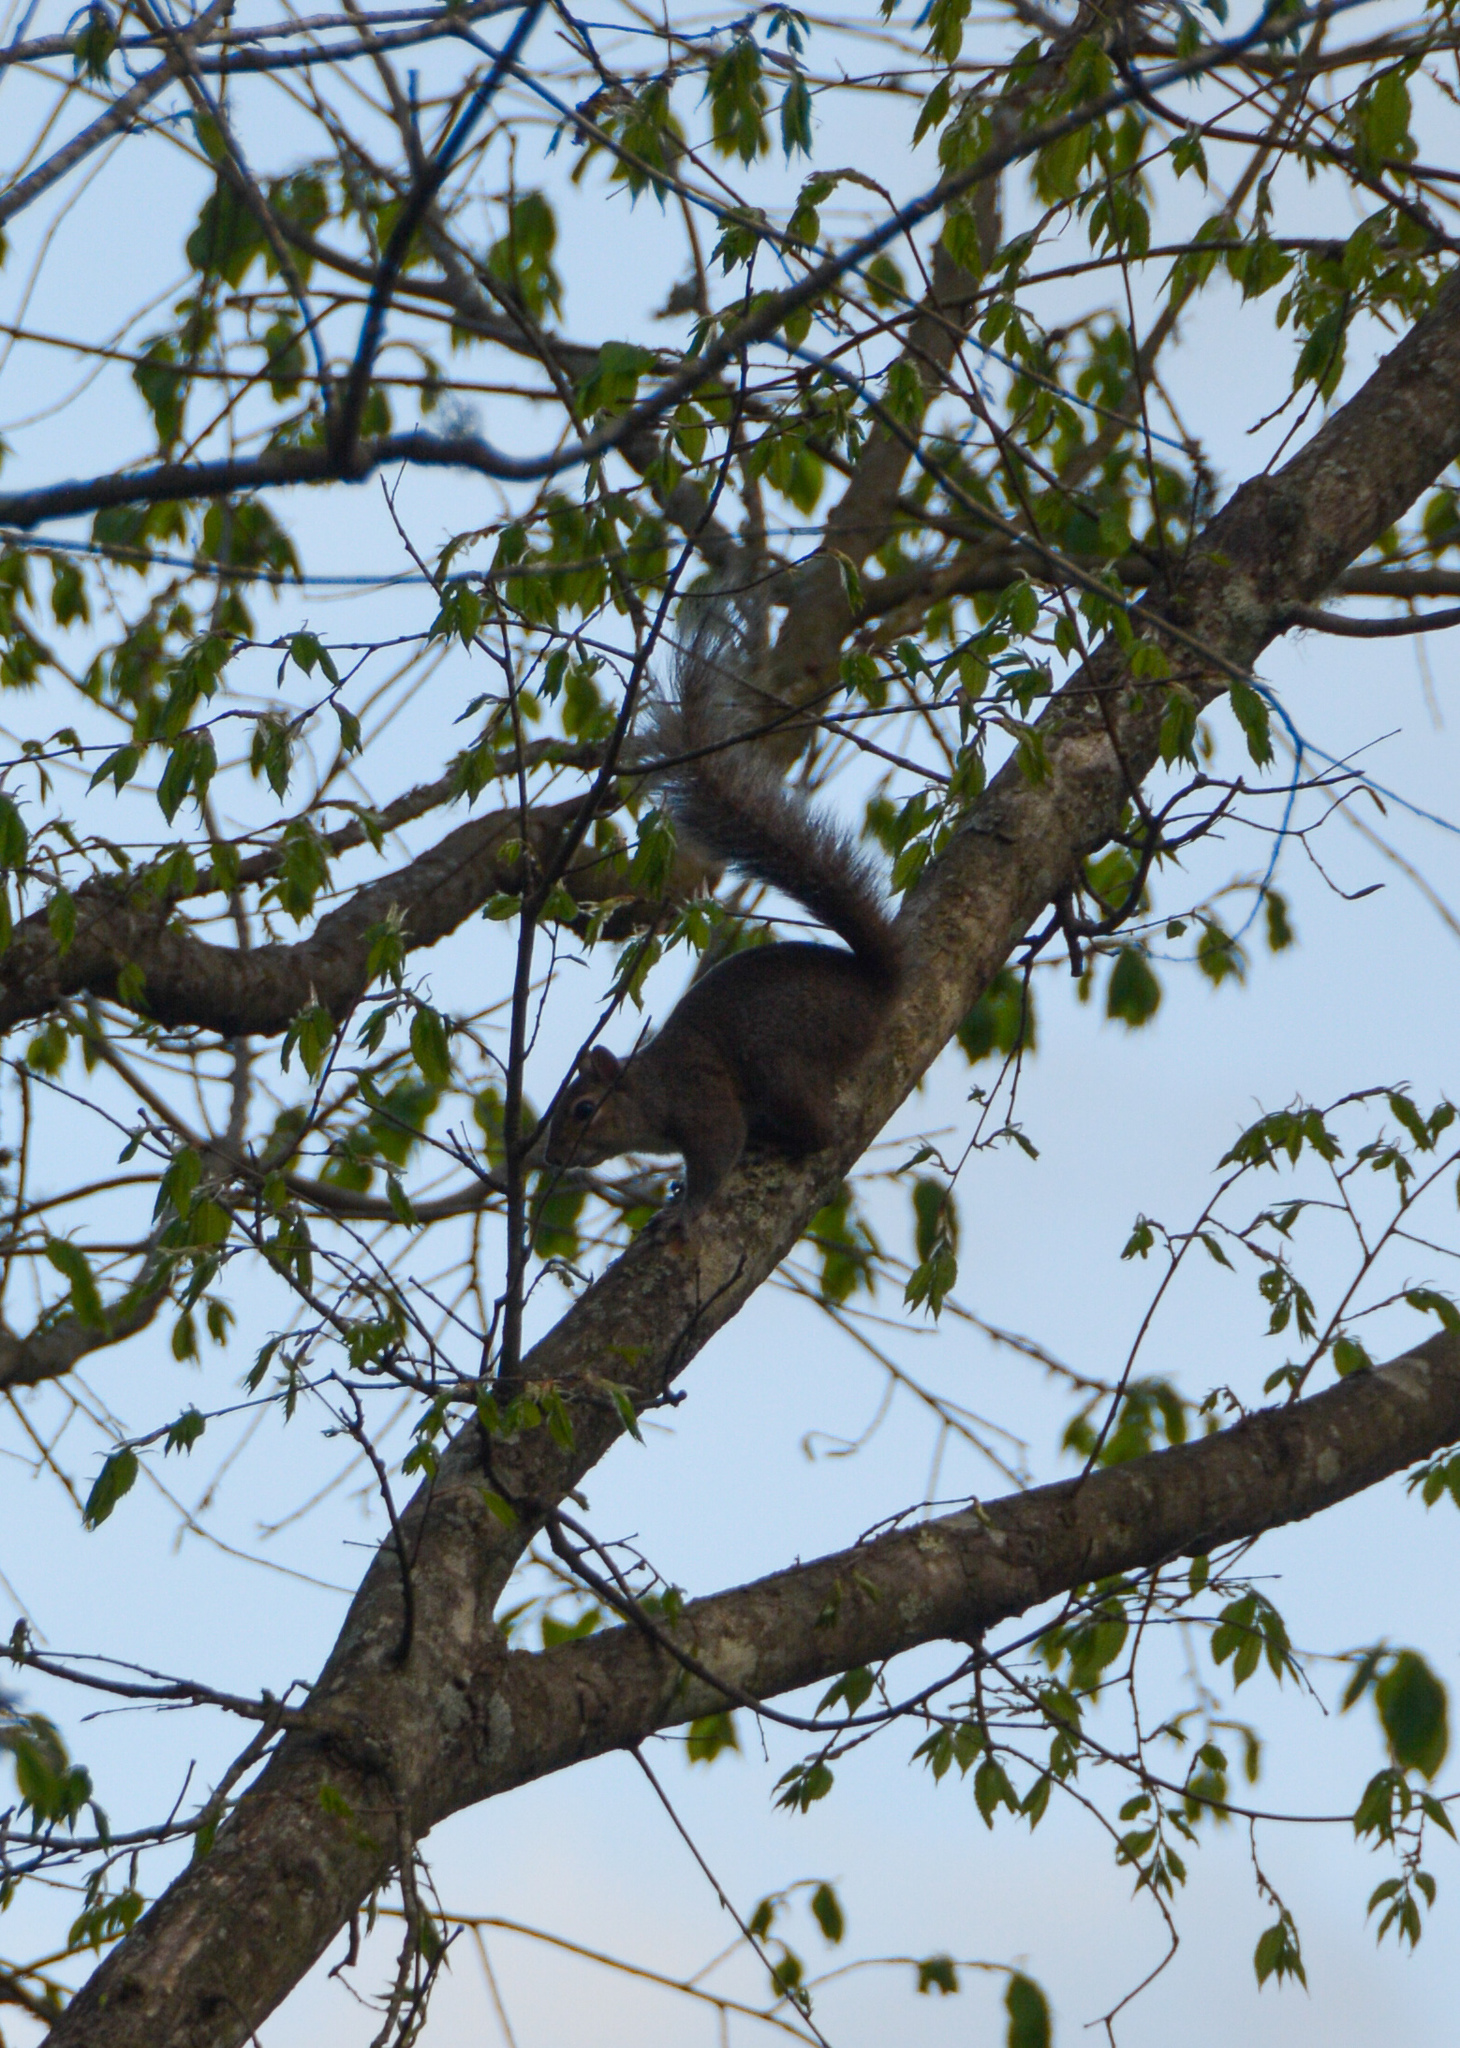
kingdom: Animalia
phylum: Chordata
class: Mammalia
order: Rodentia
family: Sciuridae
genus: Sciurus
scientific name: Sciurus carolinensis
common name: Eastern gray squirrel
